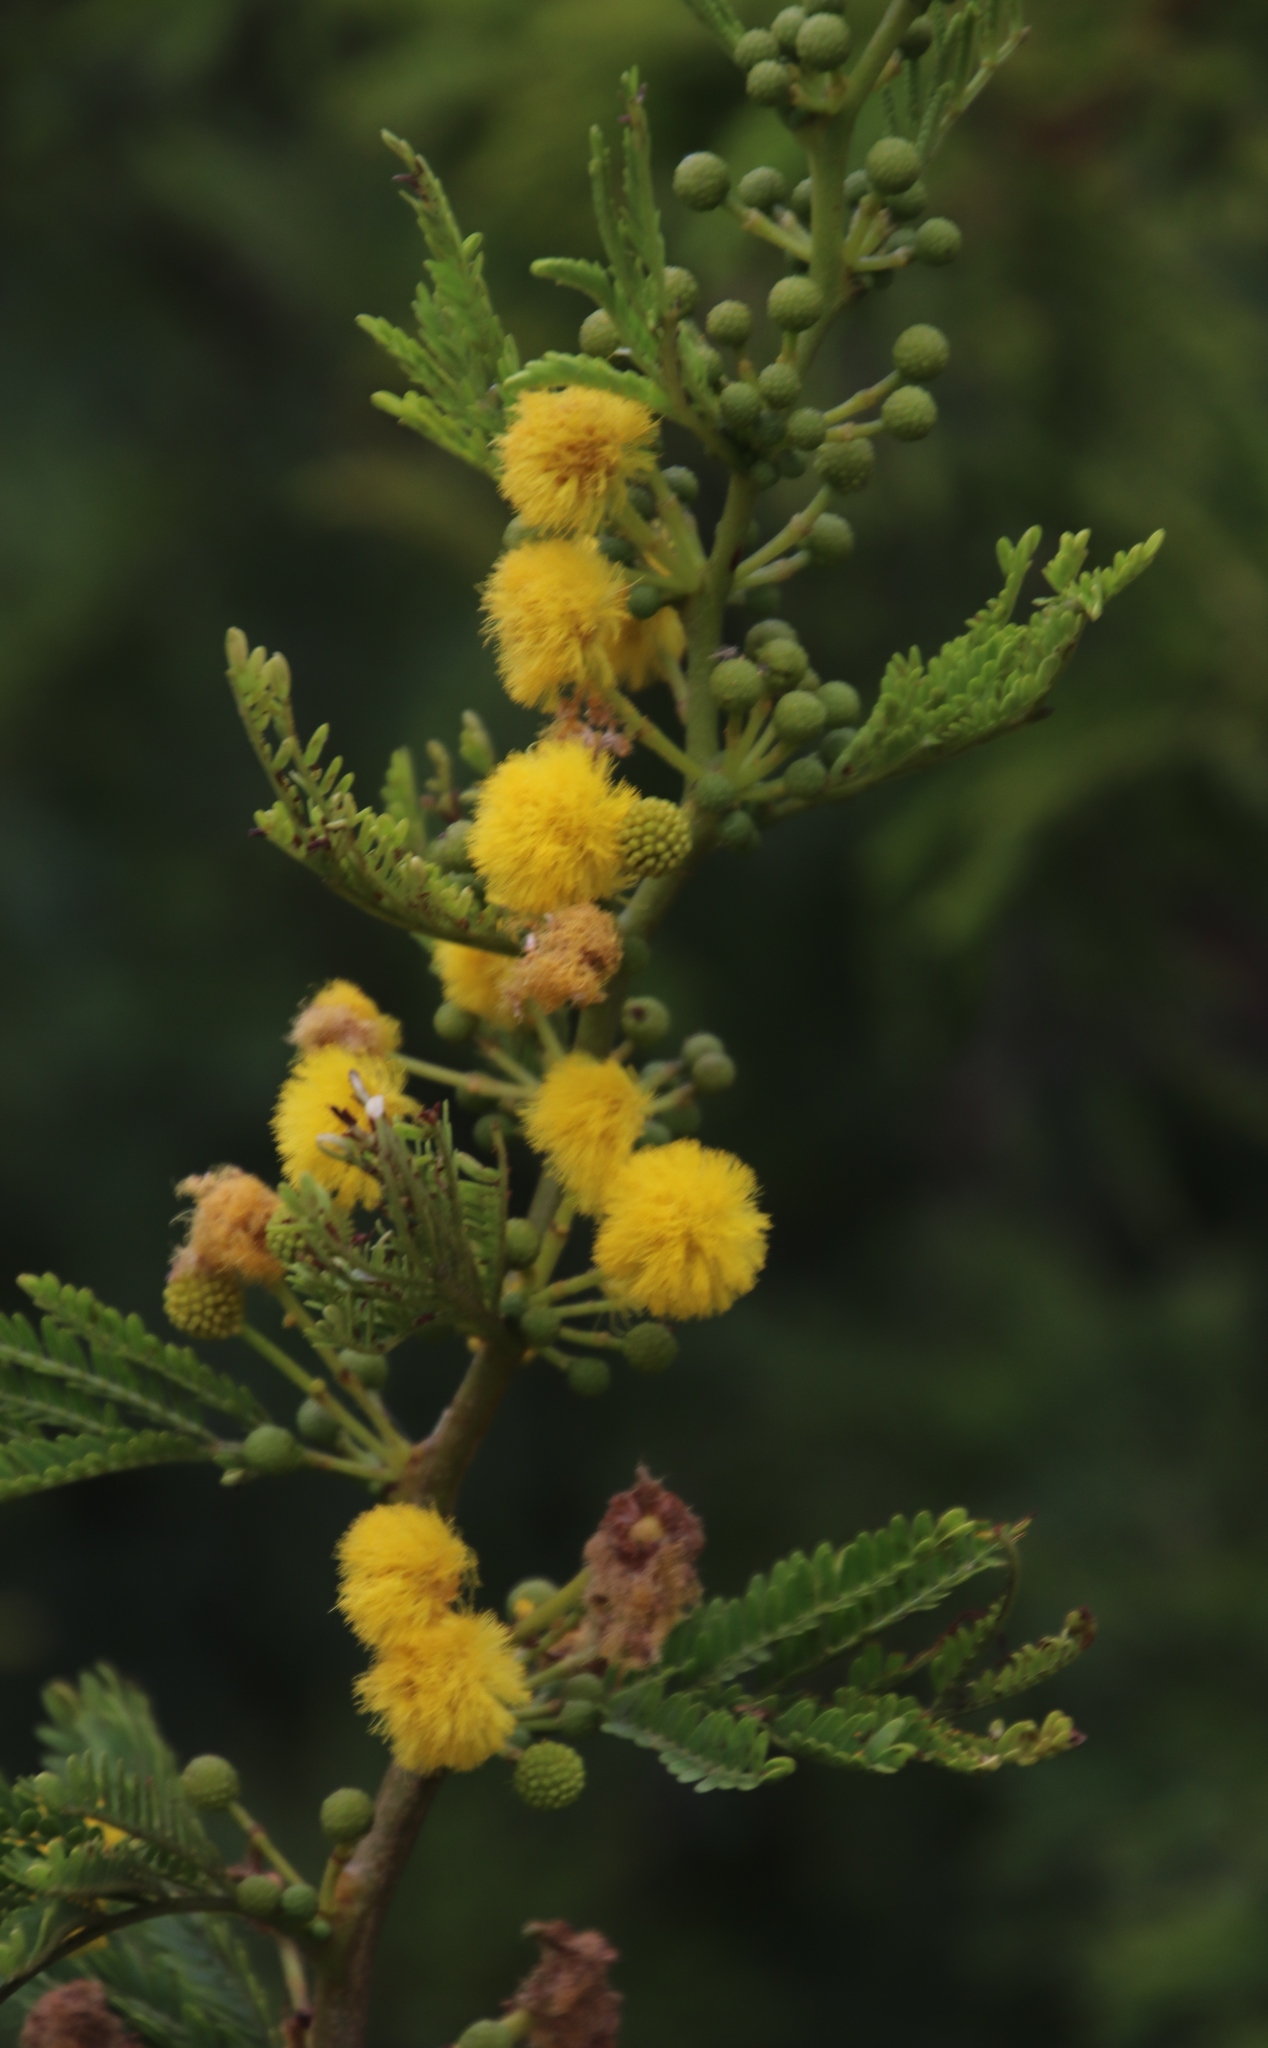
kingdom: Plantae
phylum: Tracheophyta
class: Magnoliopsida
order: Fabales
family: Fabaceae
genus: Vachellia
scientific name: Vachellia karroo
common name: Sweet thorn
